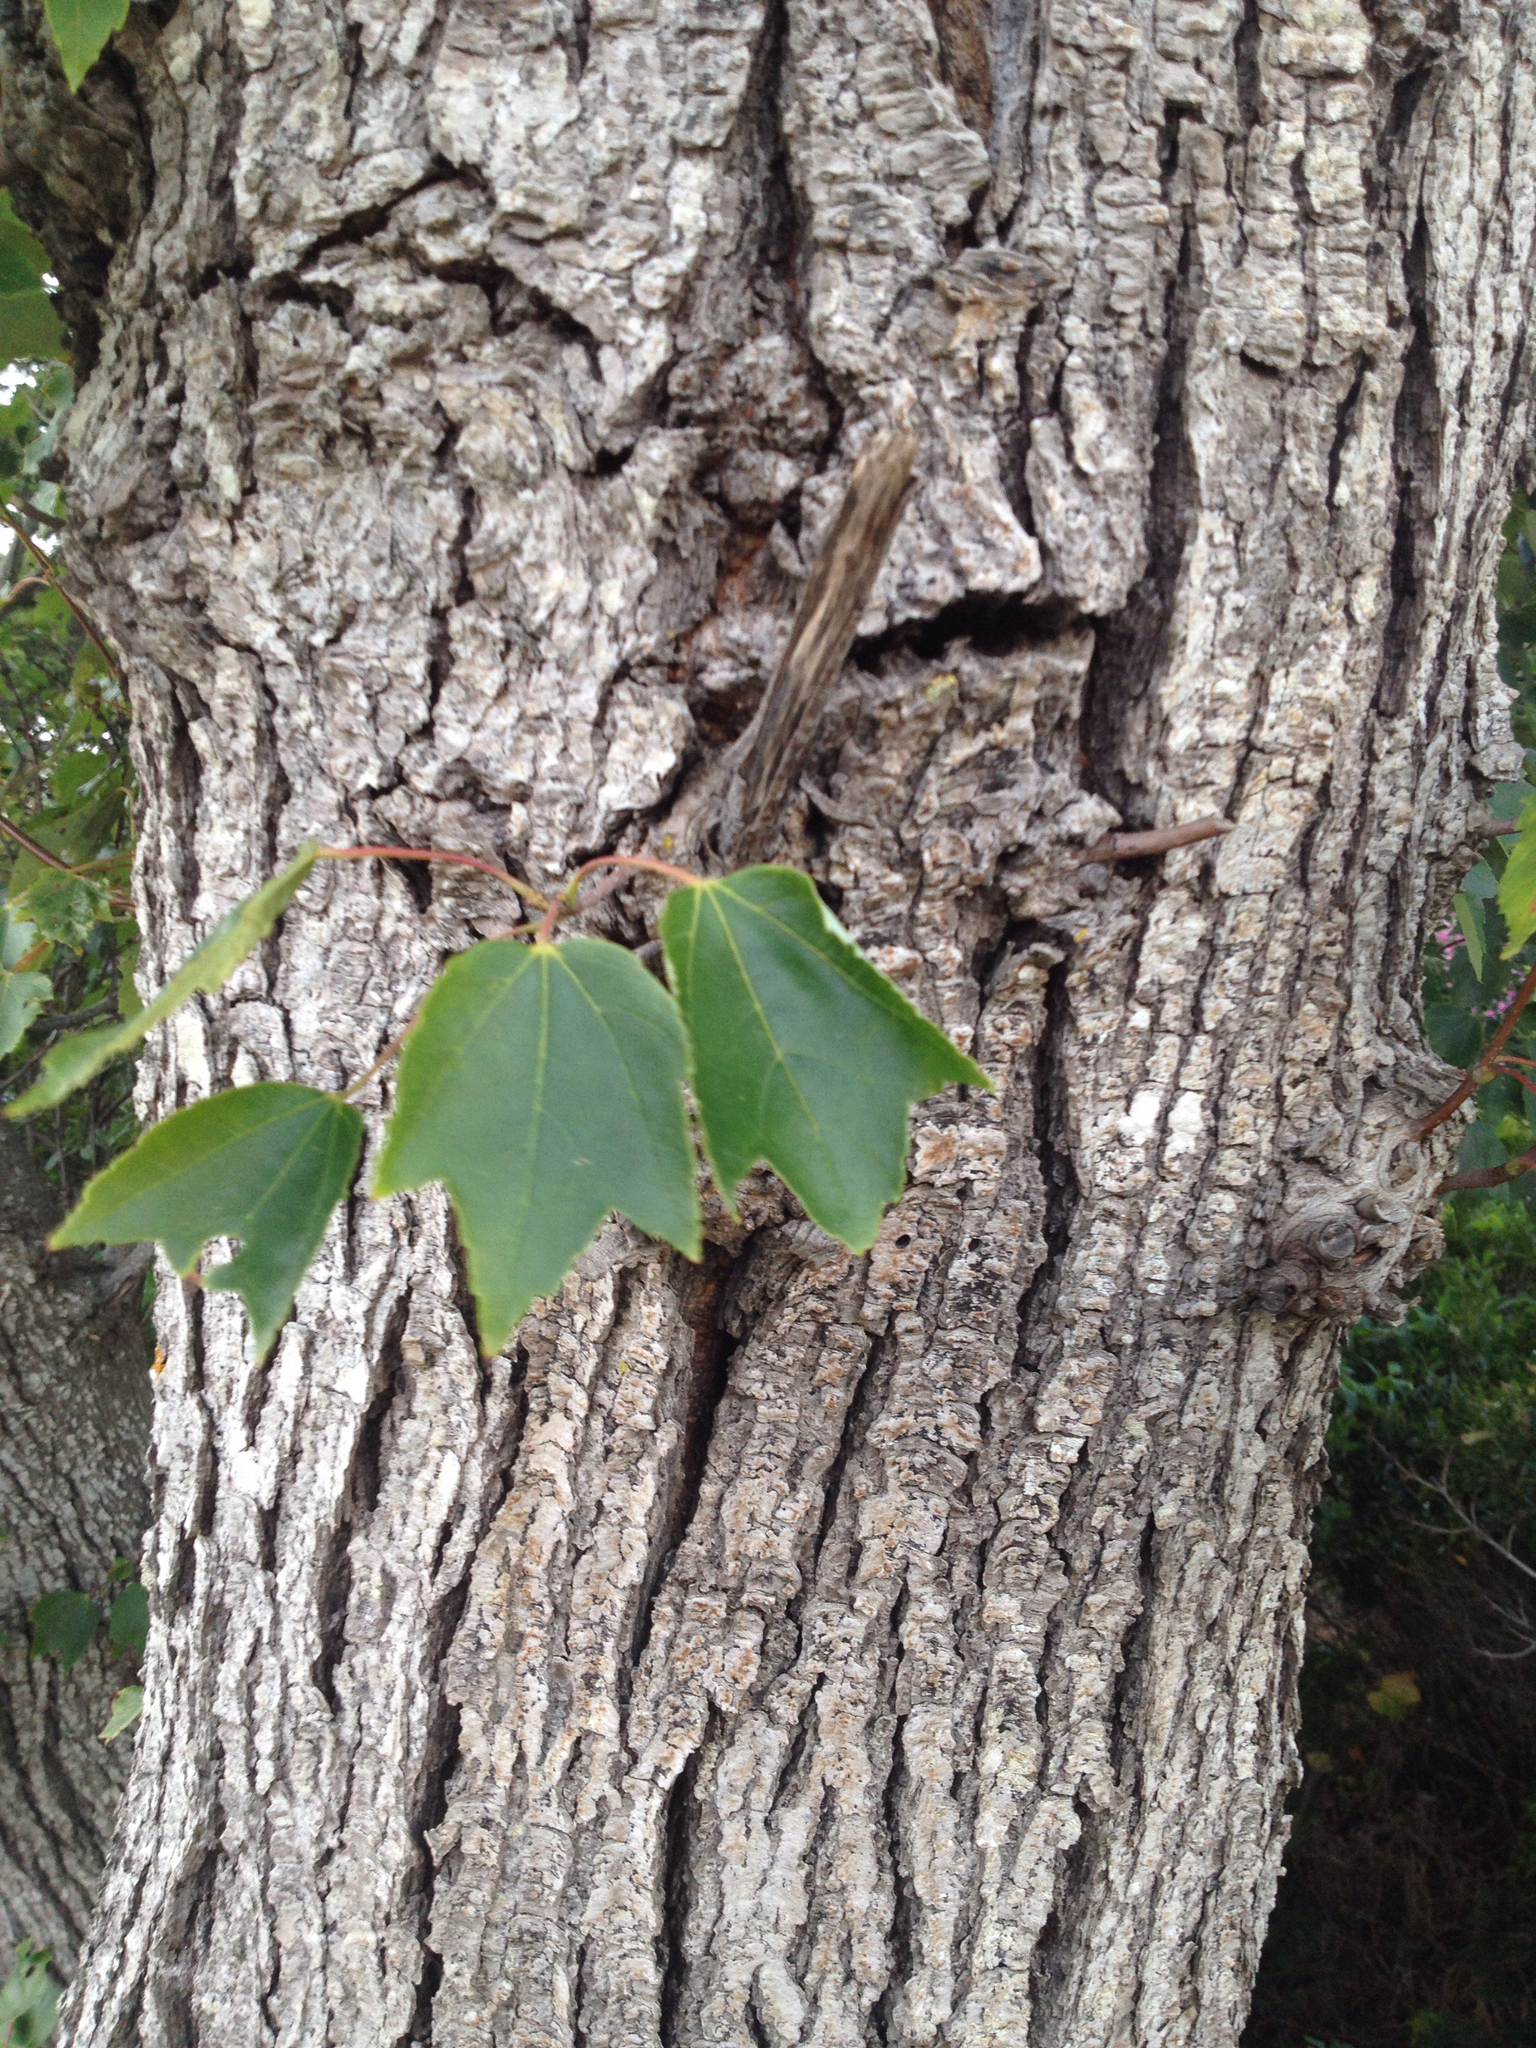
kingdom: Plantae
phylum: Tracheophyta
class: Magnoliopsida
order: Sapindales
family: Sapindaceae
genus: Acer
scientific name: Acer rubrum
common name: Red maple
